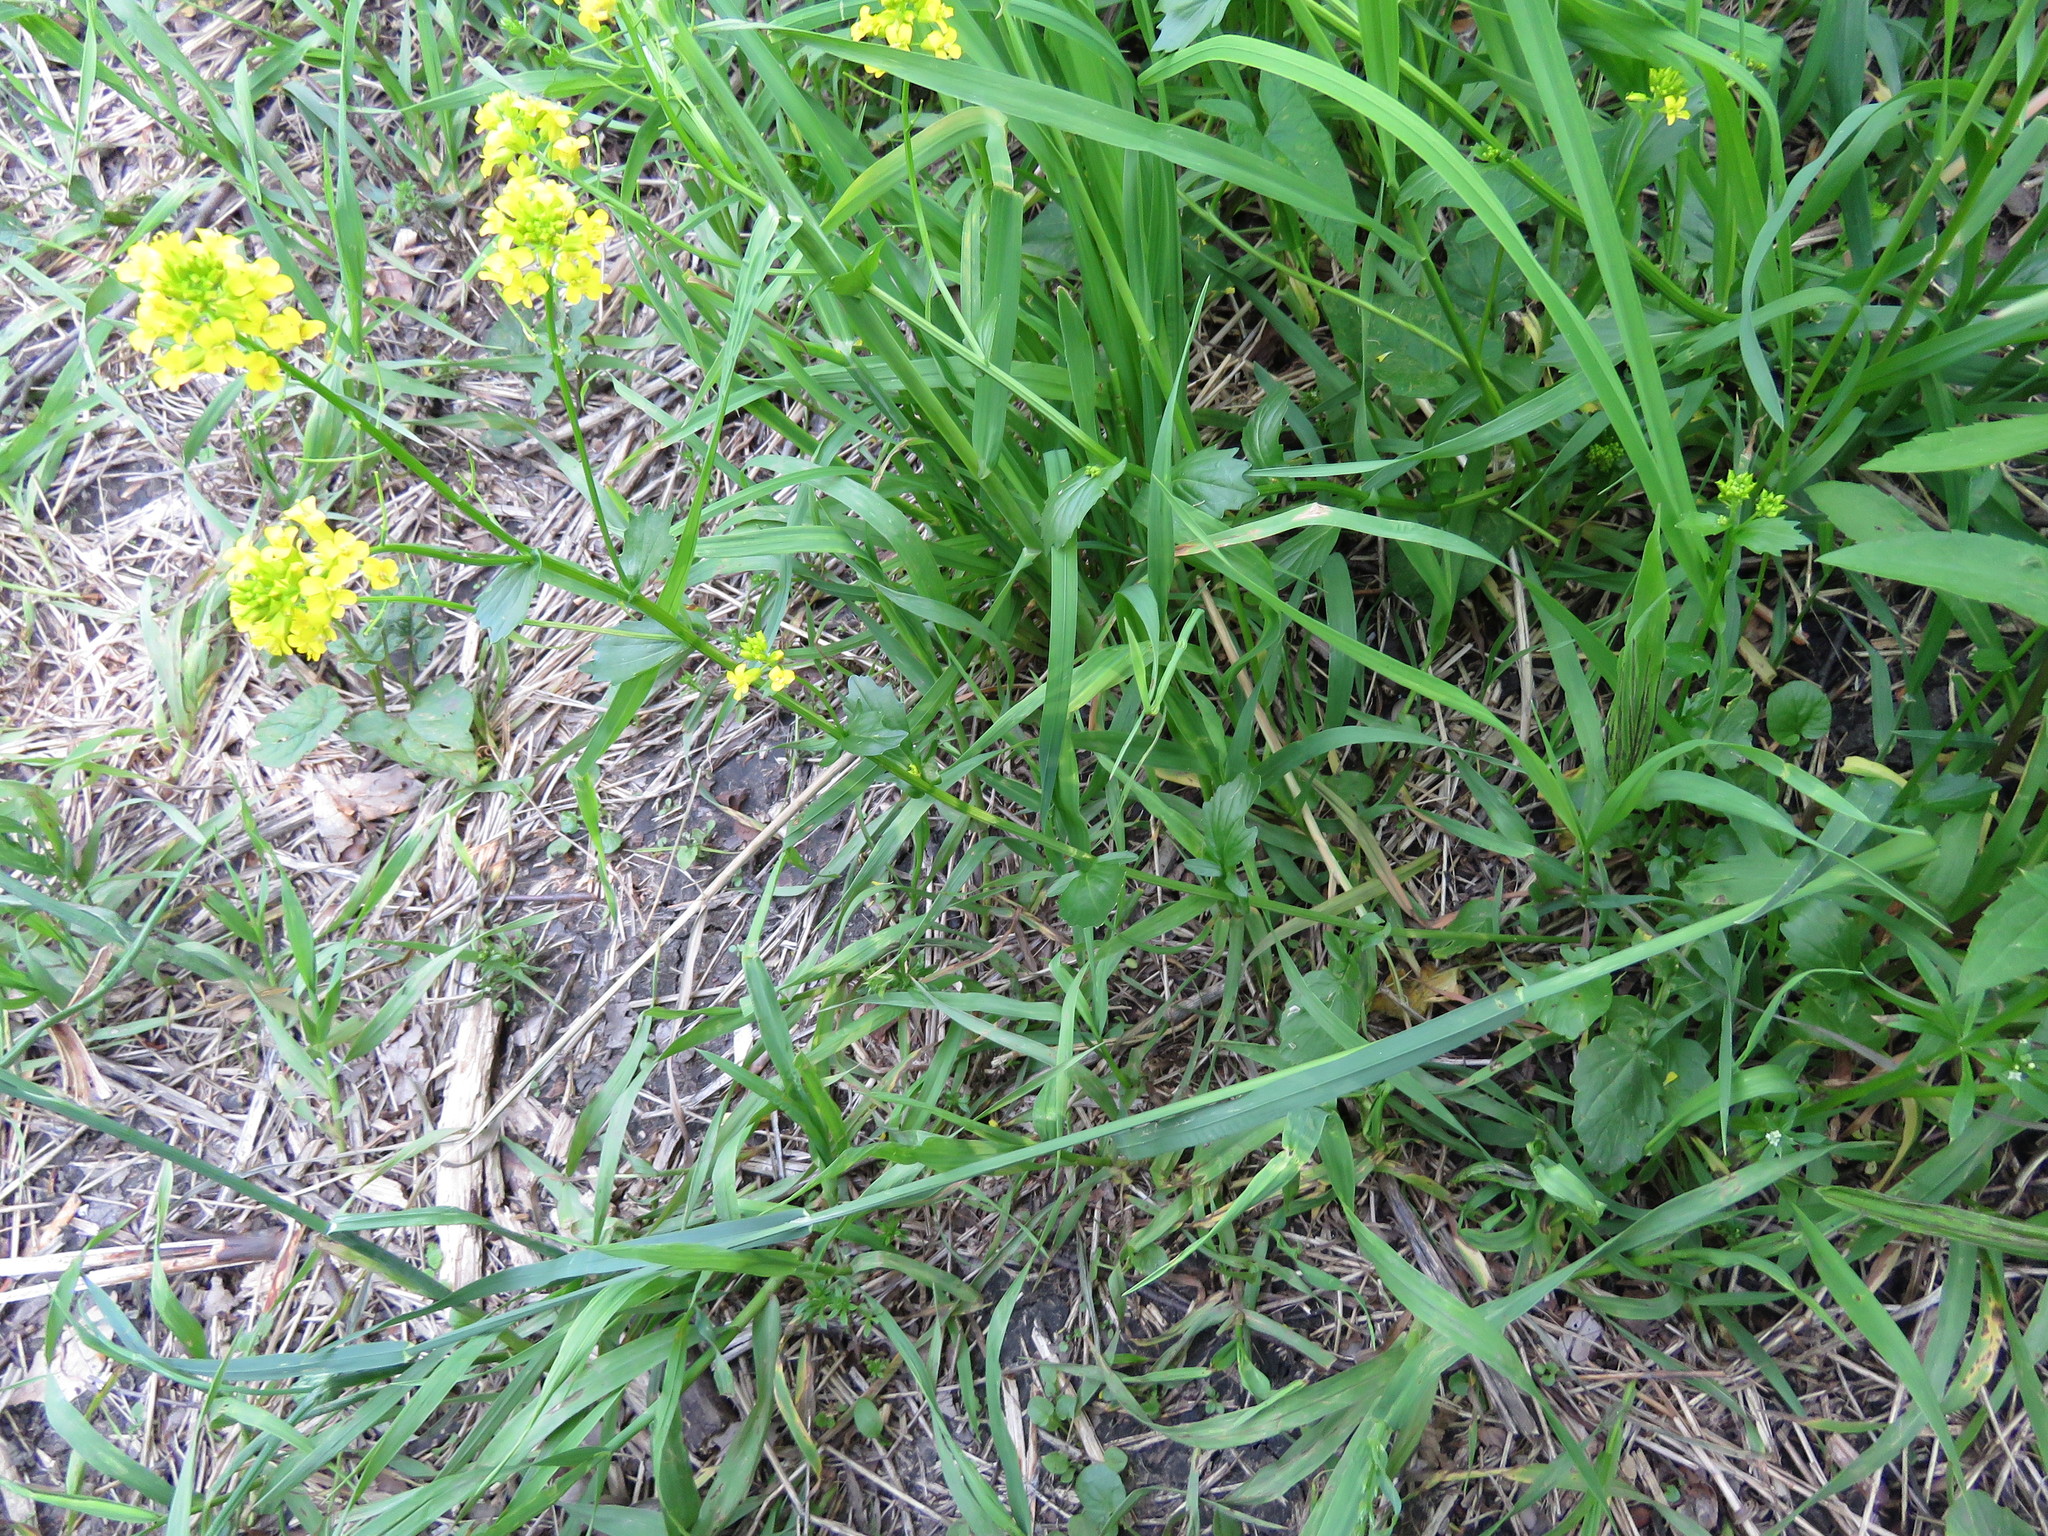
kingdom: Plantae
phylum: Tracheophyta
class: Magnoliopsida
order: Brassicales
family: Brassicaceae
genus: Barbarea
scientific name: Barbarea vulgaris
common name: Cressy-greens
